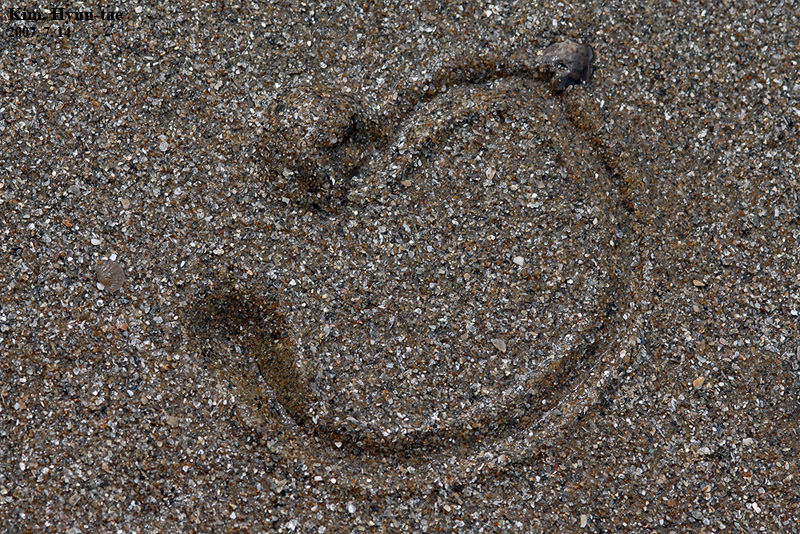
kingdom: Animalia
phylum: Mollusca
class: Bivalvia
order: Cardiida
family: Psammobiidae
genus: Nuttallia
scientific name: Nuttallia japonica
